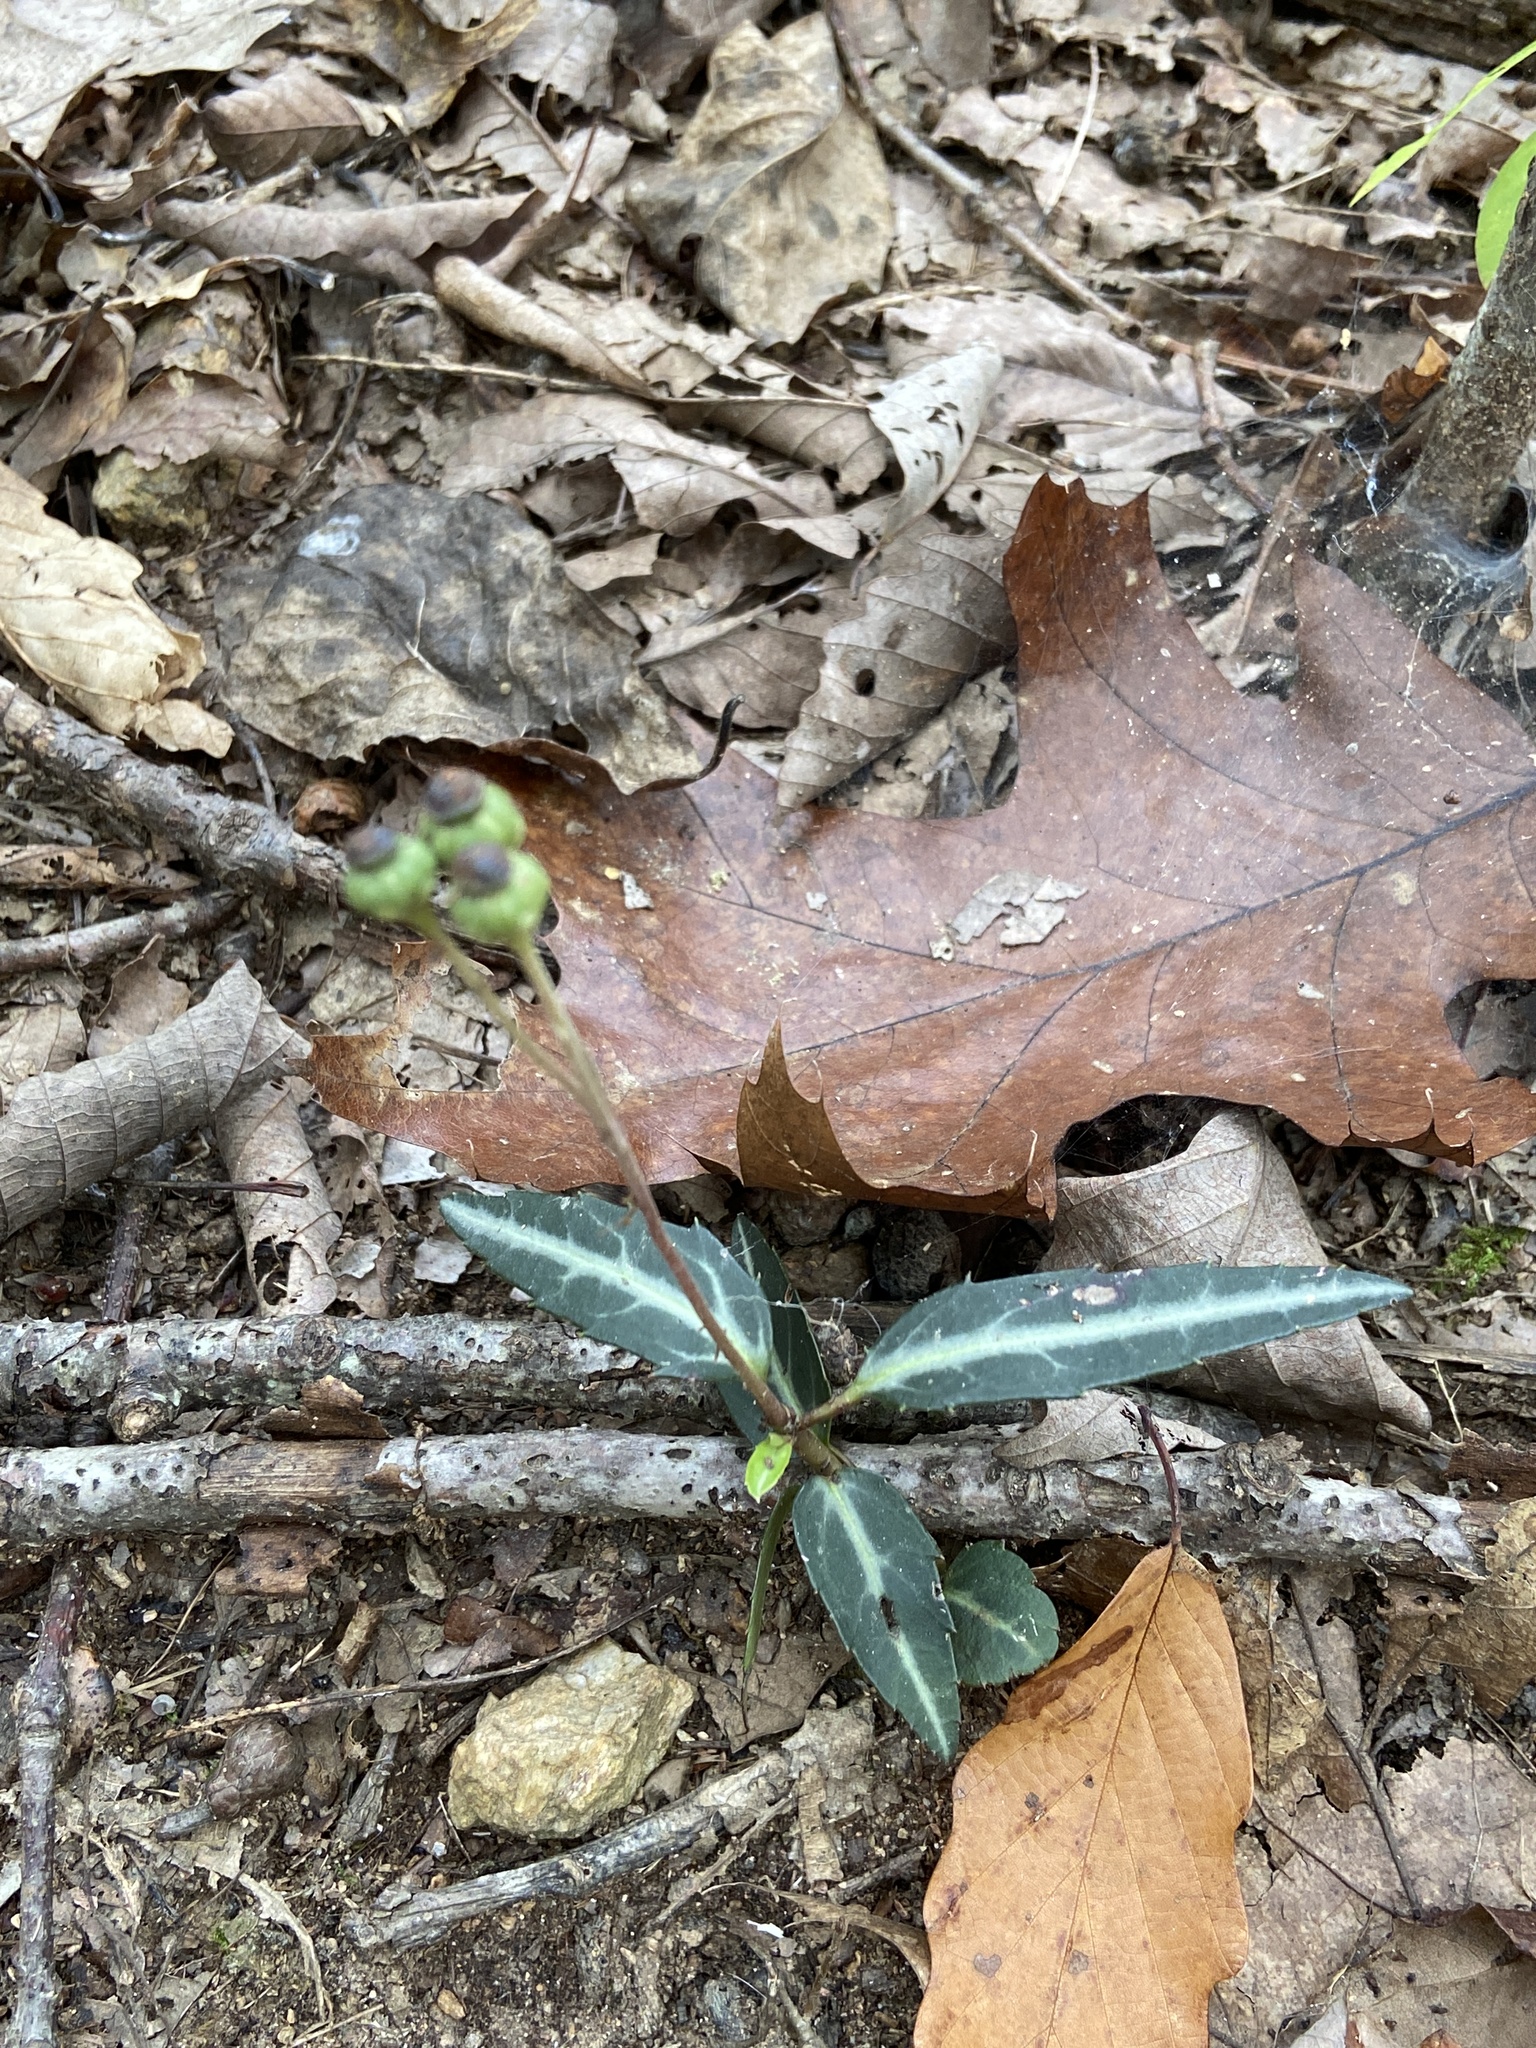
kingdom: Plantae
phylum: Tracheophyta
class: Magnoliopsida
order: Ericales
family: Ericaceae
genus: Chimaphila
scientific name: Chimaphila maculata
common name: Spotted pipsissewa
